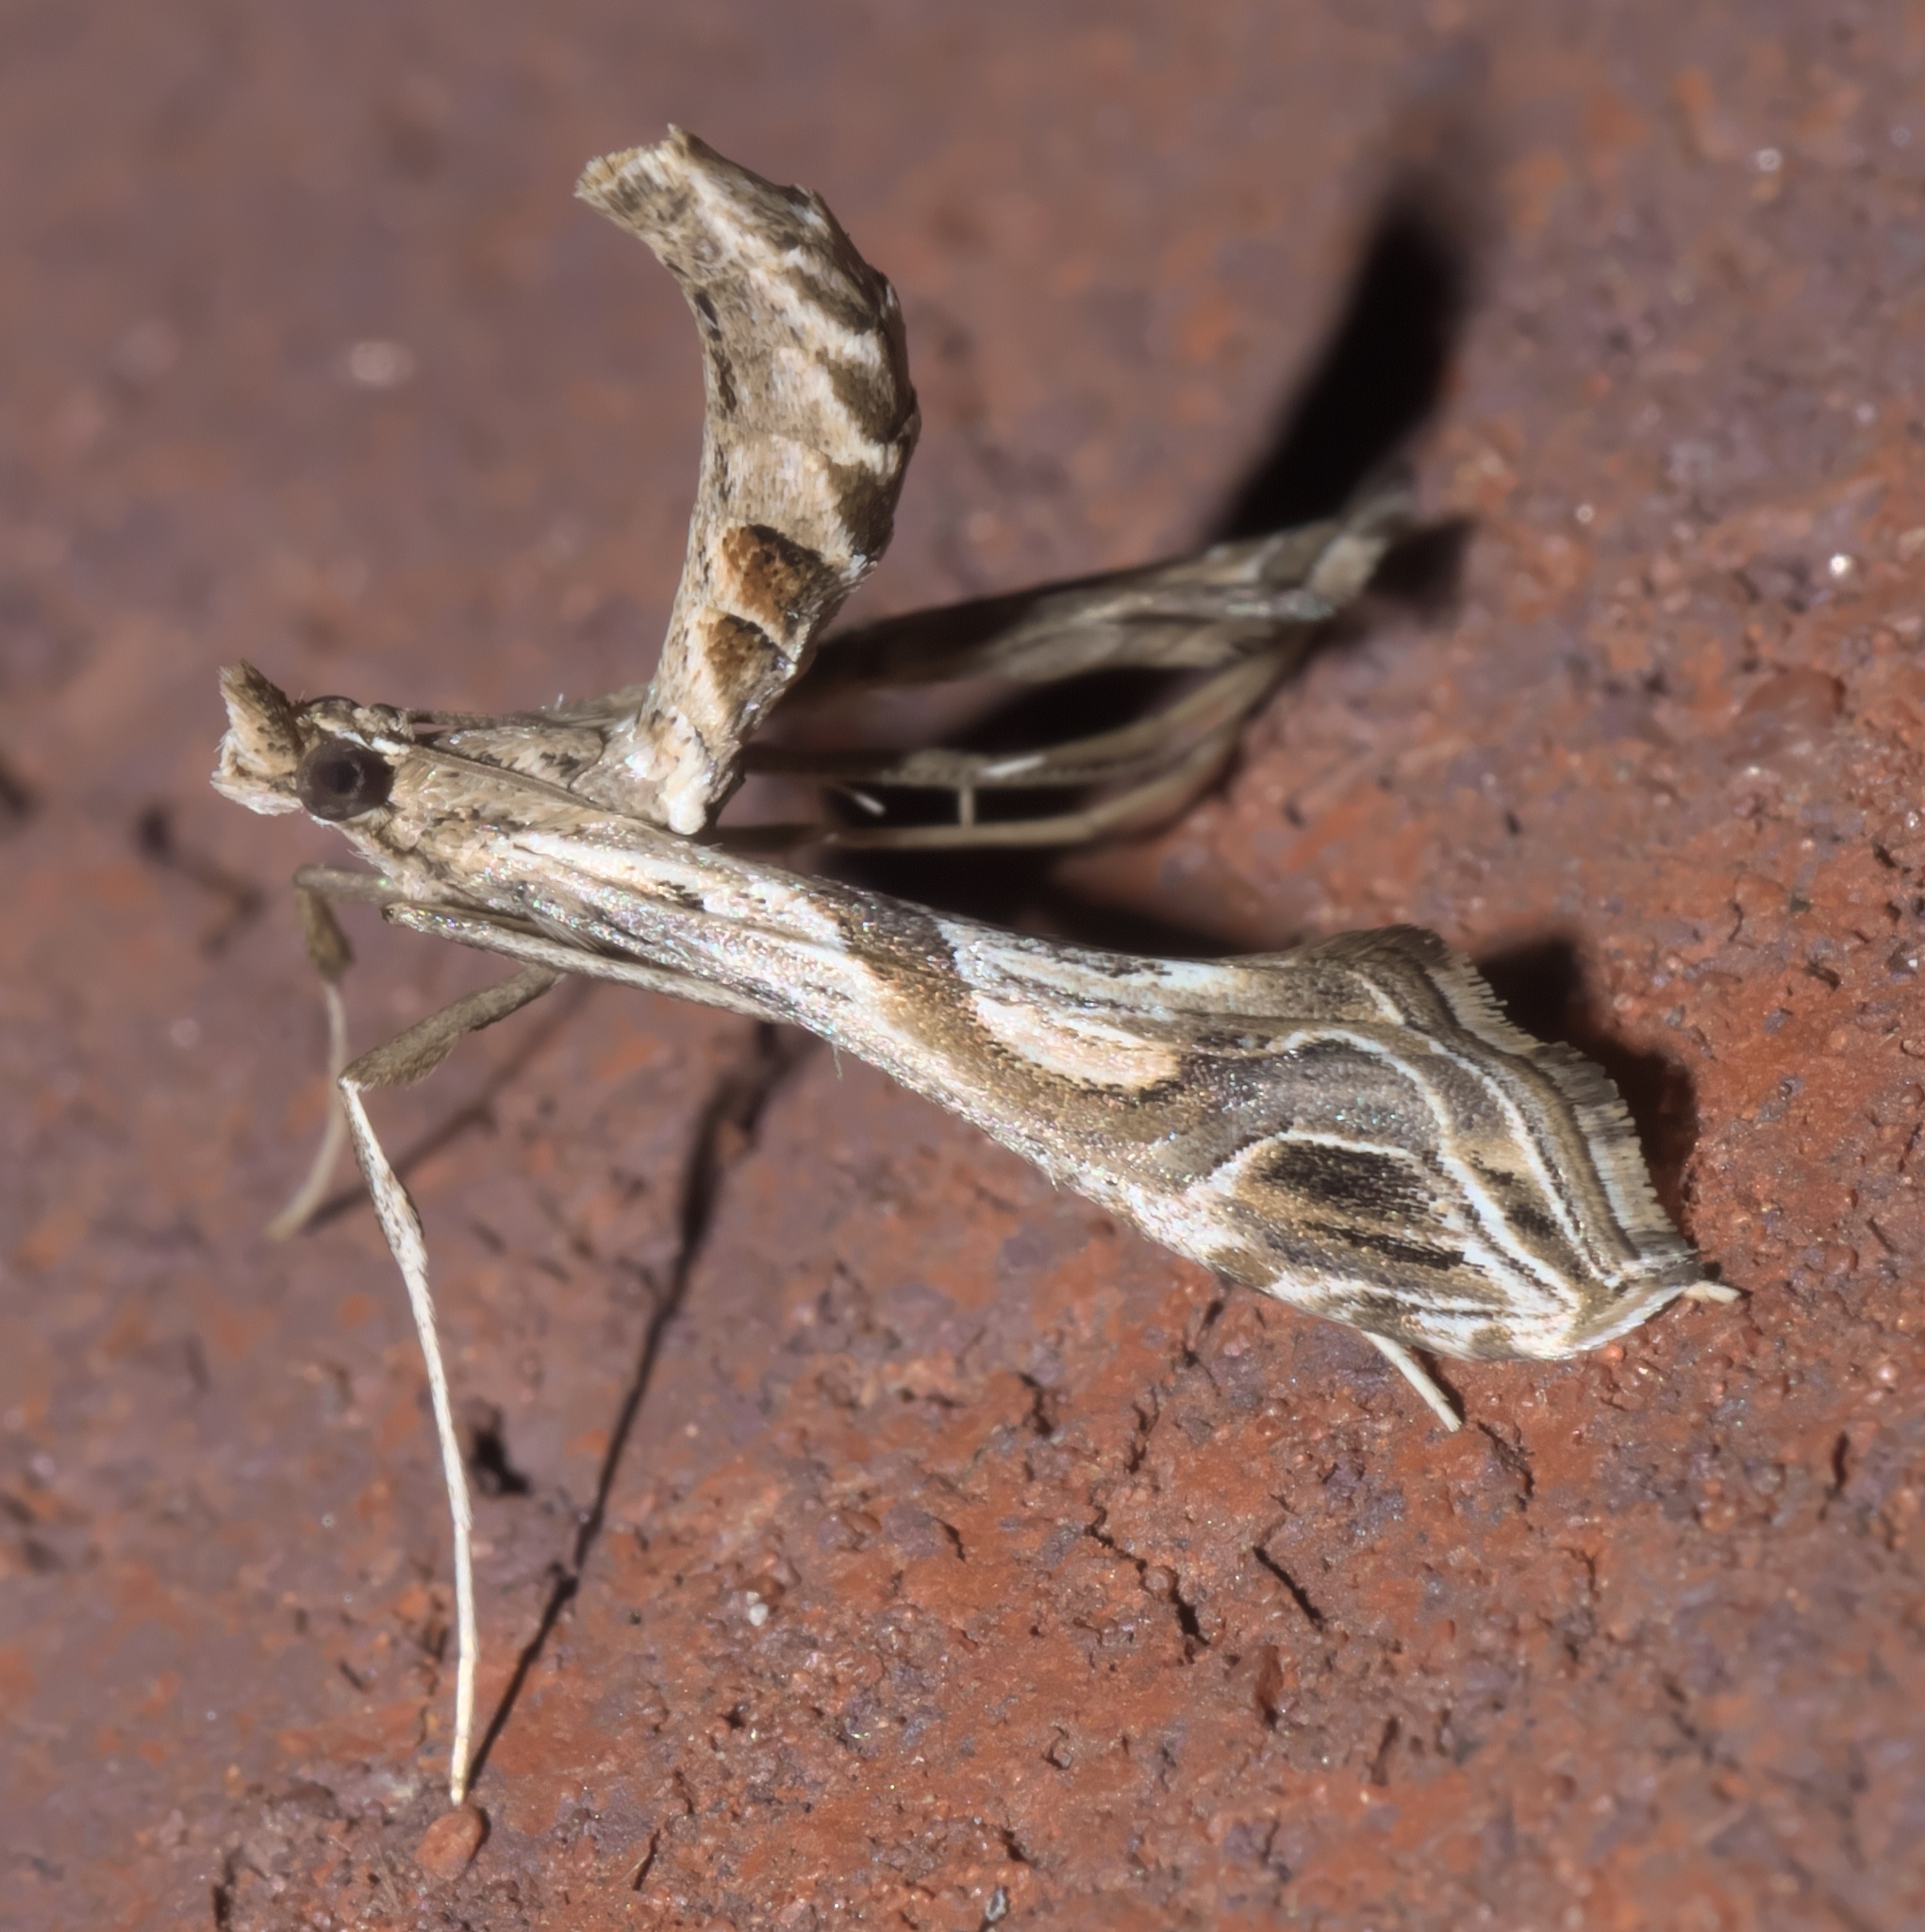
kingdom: Animalia
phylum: Arthropoda
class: Insecta
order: Lepidoptera
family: Crambidae
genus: Lineodes
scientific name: Lineodes integra
